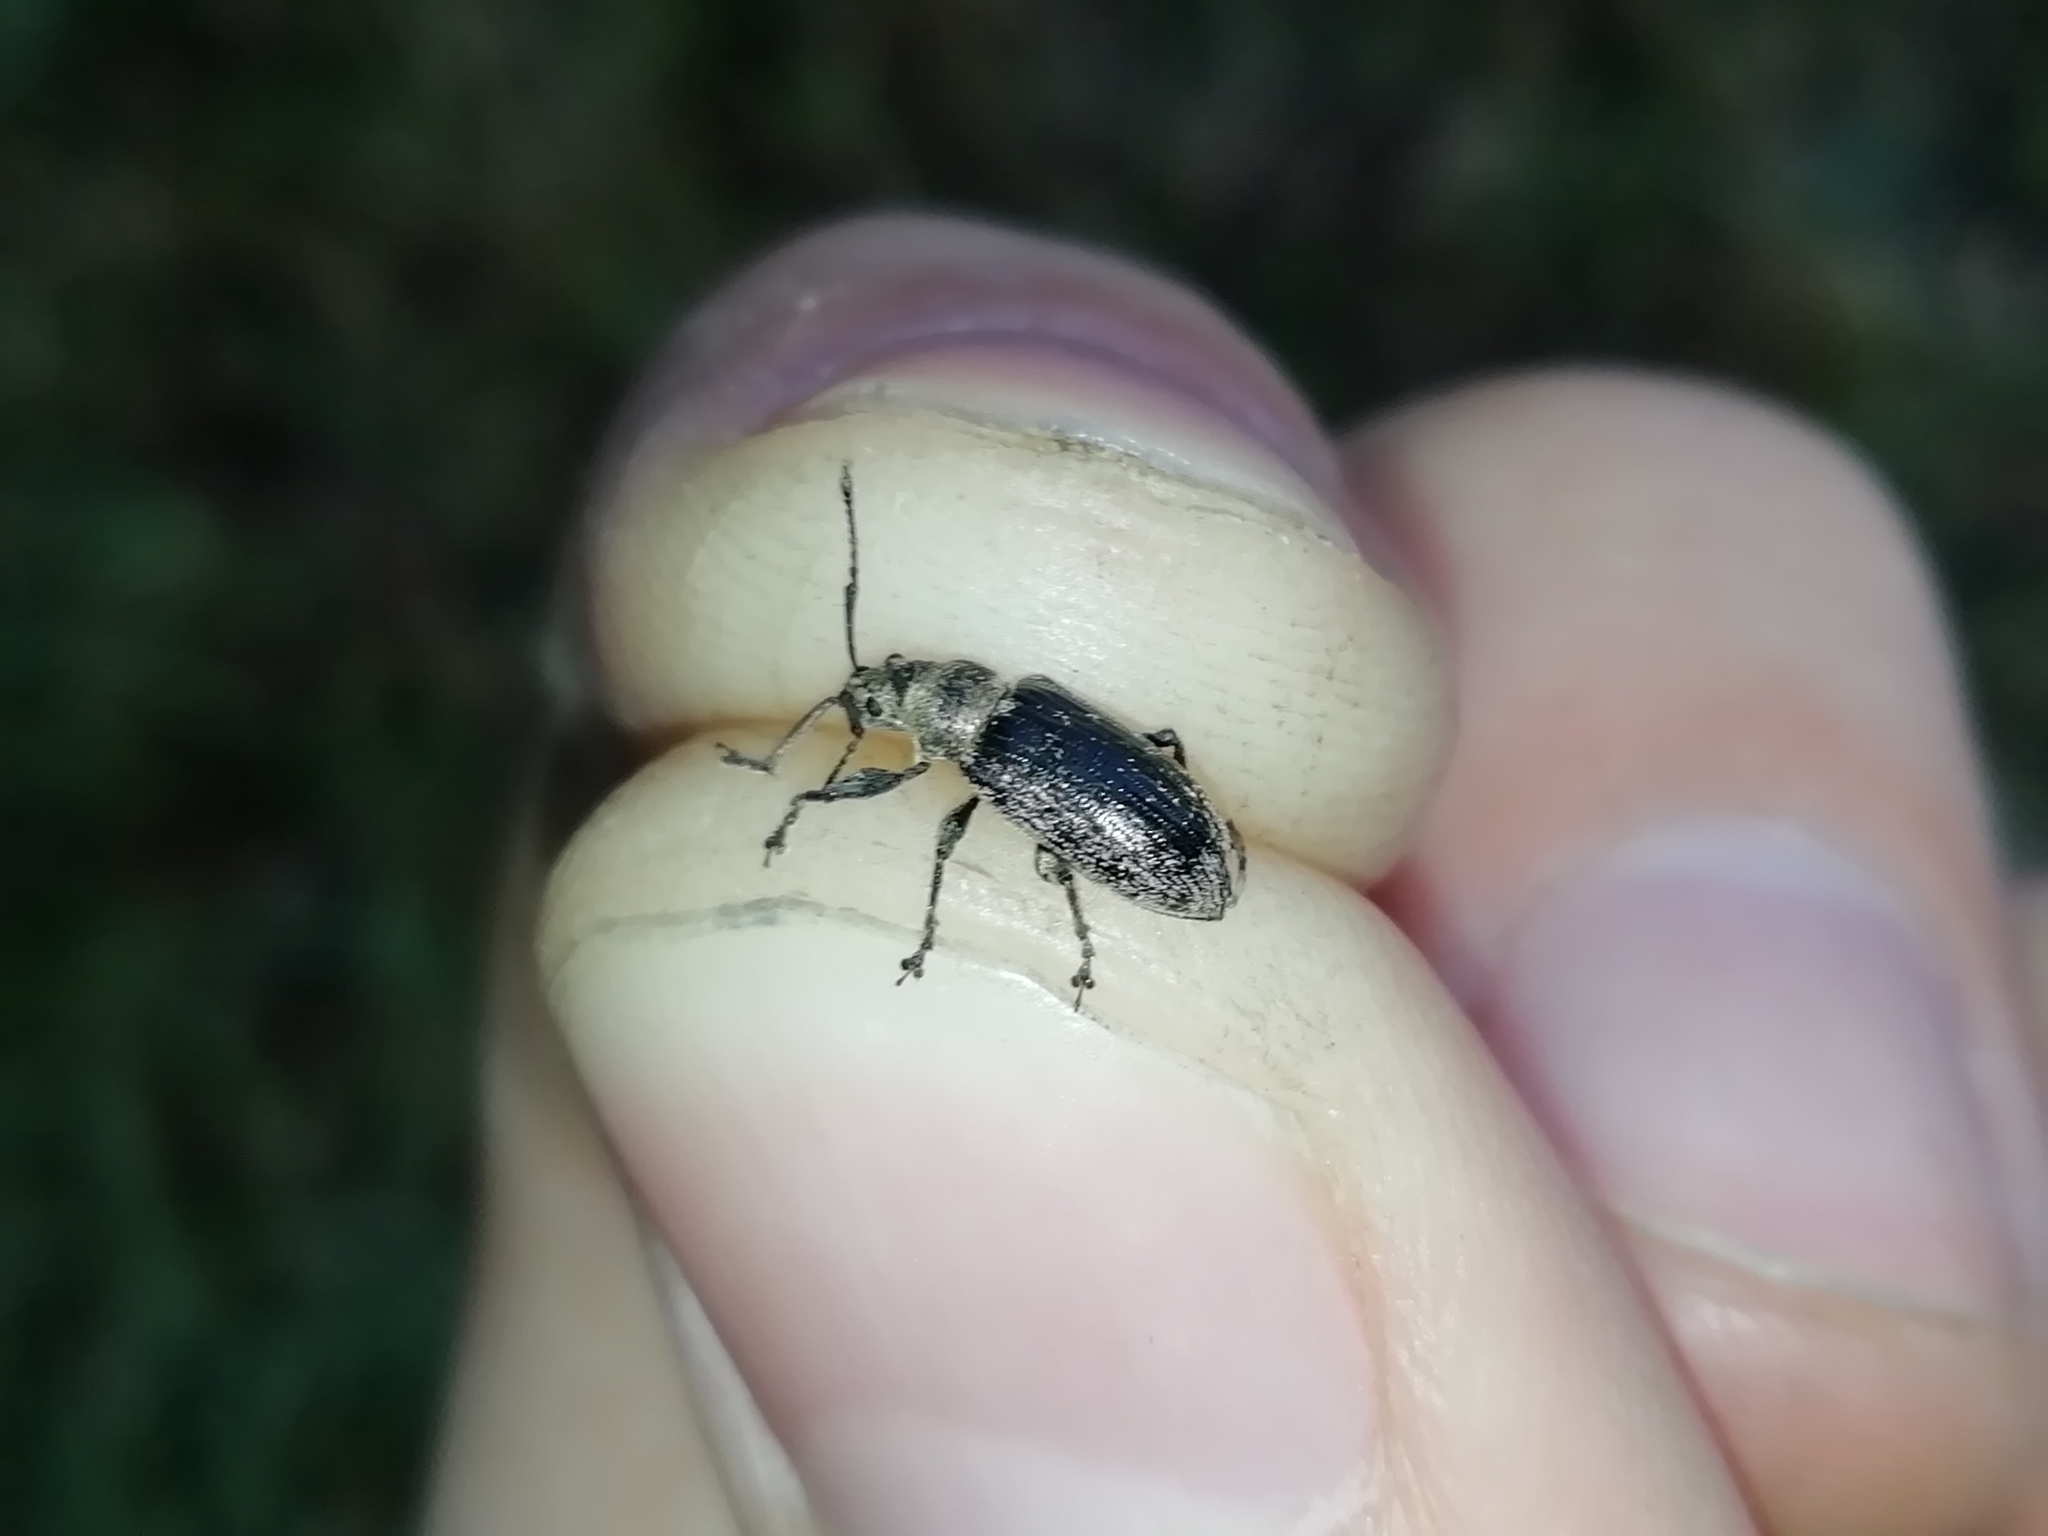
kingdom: Animalia
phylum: Arthropoda
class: Insecta
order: Coleoptera
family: Curculionidae
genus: Phyllobius
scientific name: Phyllobius pyri
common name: Common leaf weevil
